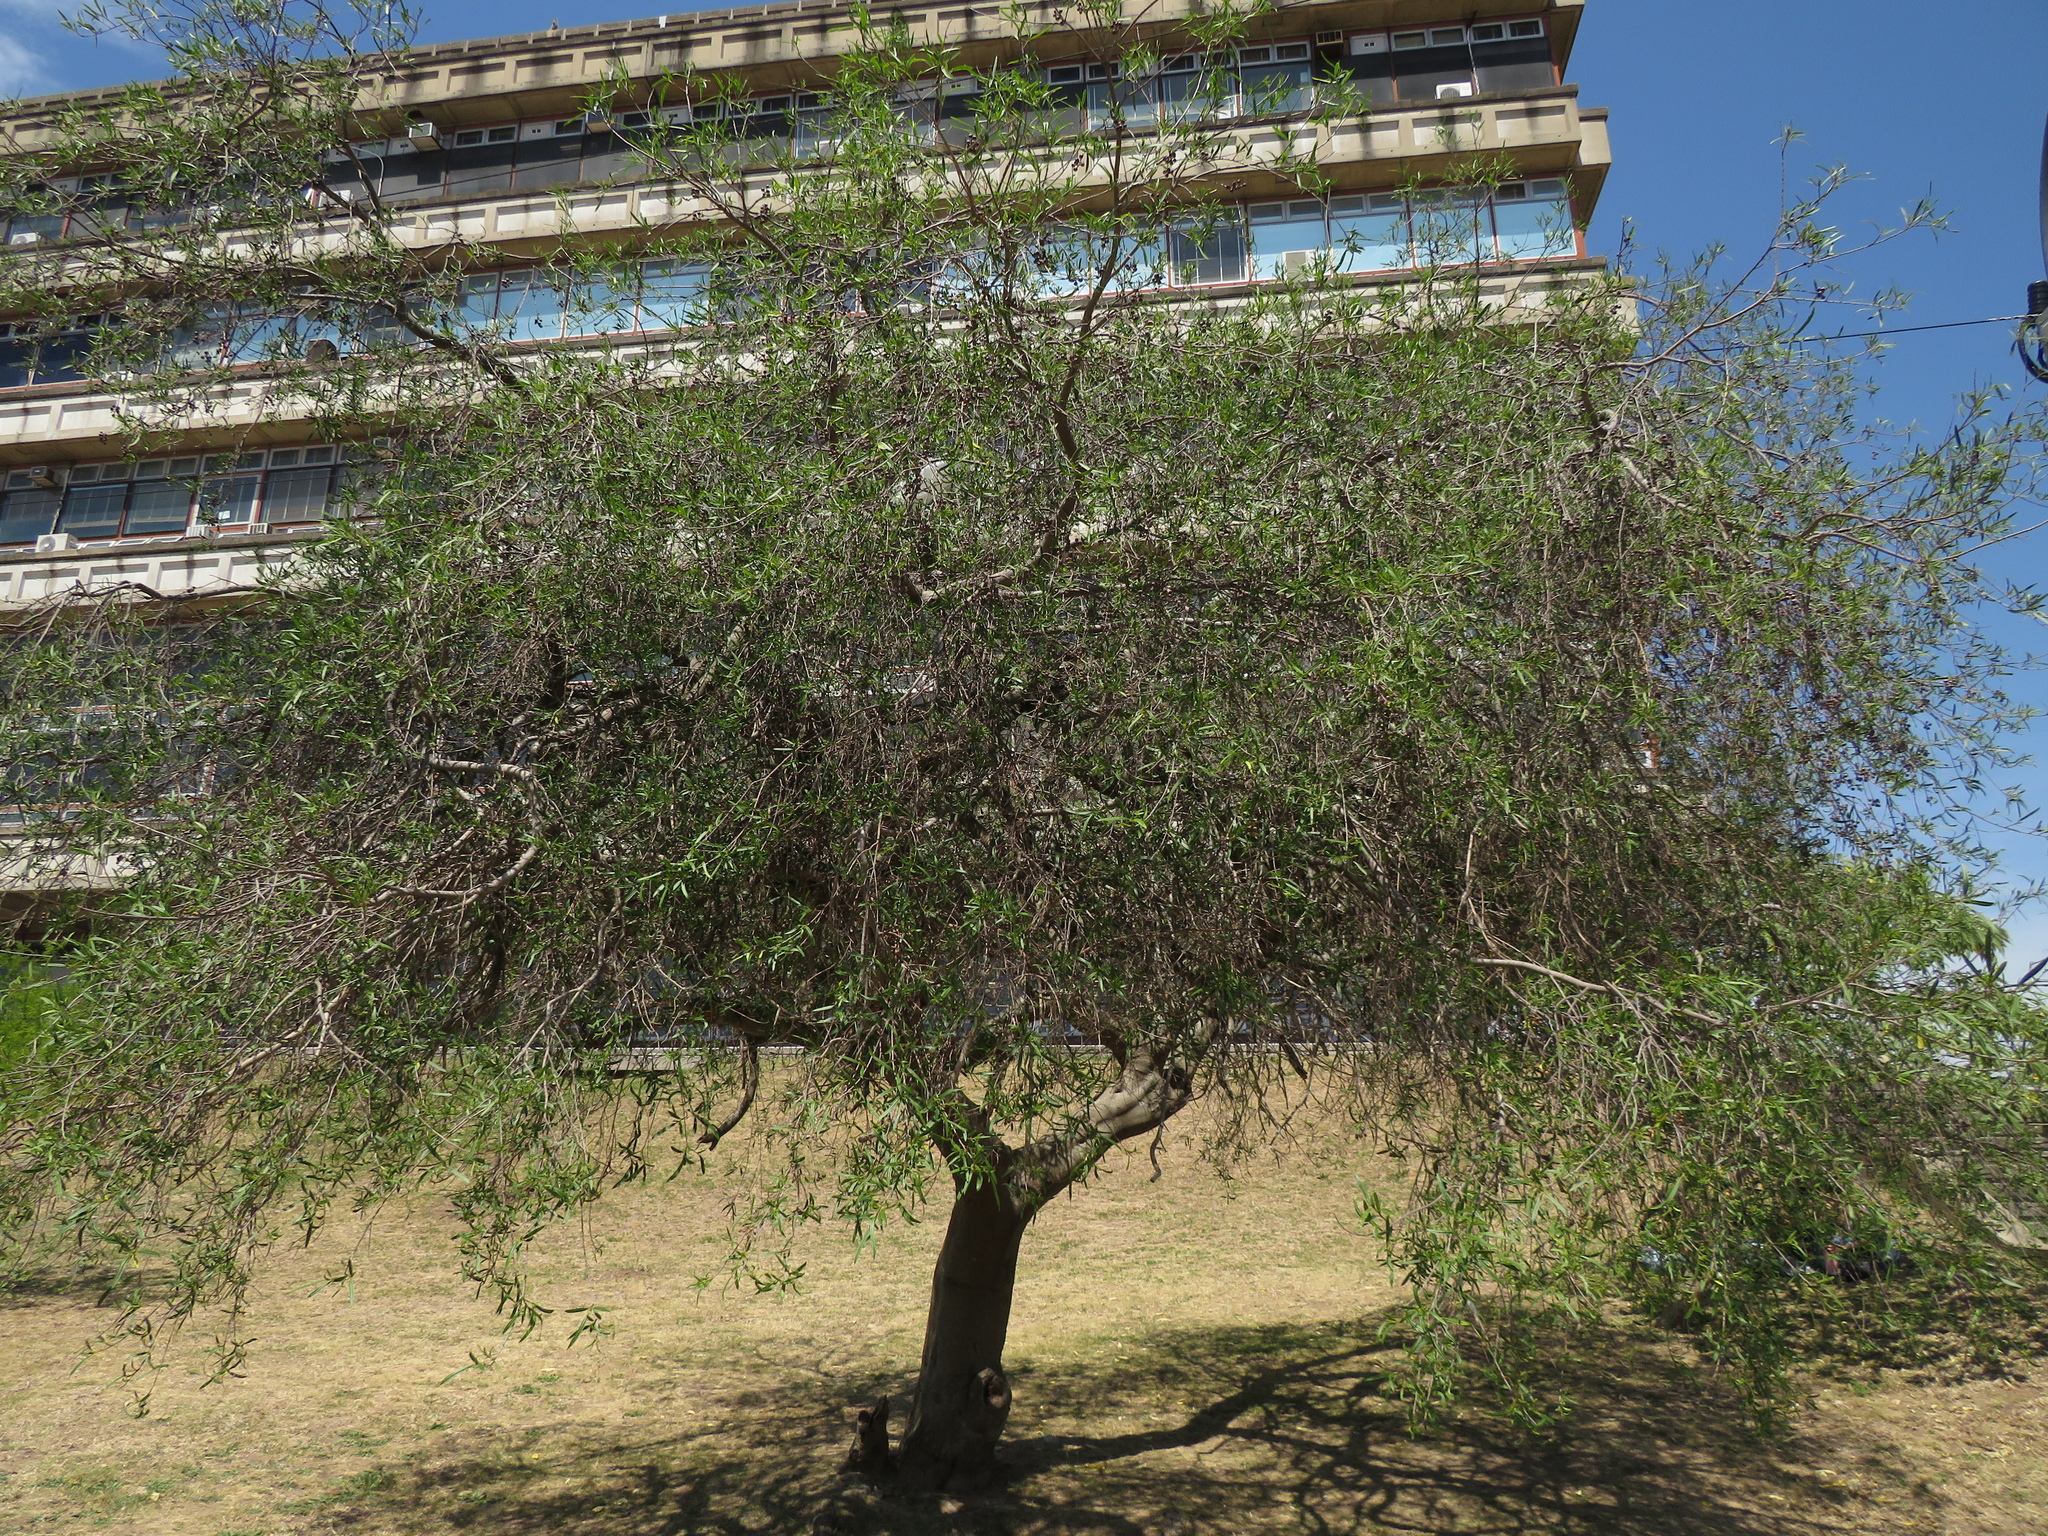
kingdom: Plantae
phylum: Tracheophyta
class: Magnoliopsida
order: Malpighiales
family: Euphorbiaceae
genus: Sapium
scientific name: Sapium haematospermum
